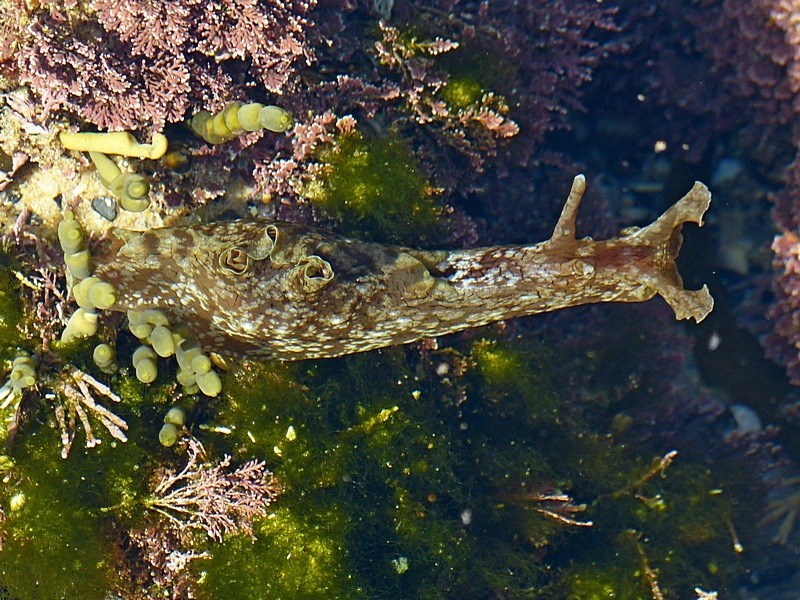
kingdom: Animalia
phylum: Mollusca
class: Gastropoda
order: Aplysiida
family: Aplysiidae
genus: Aplysia
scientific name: Aplysia sydneyensis
